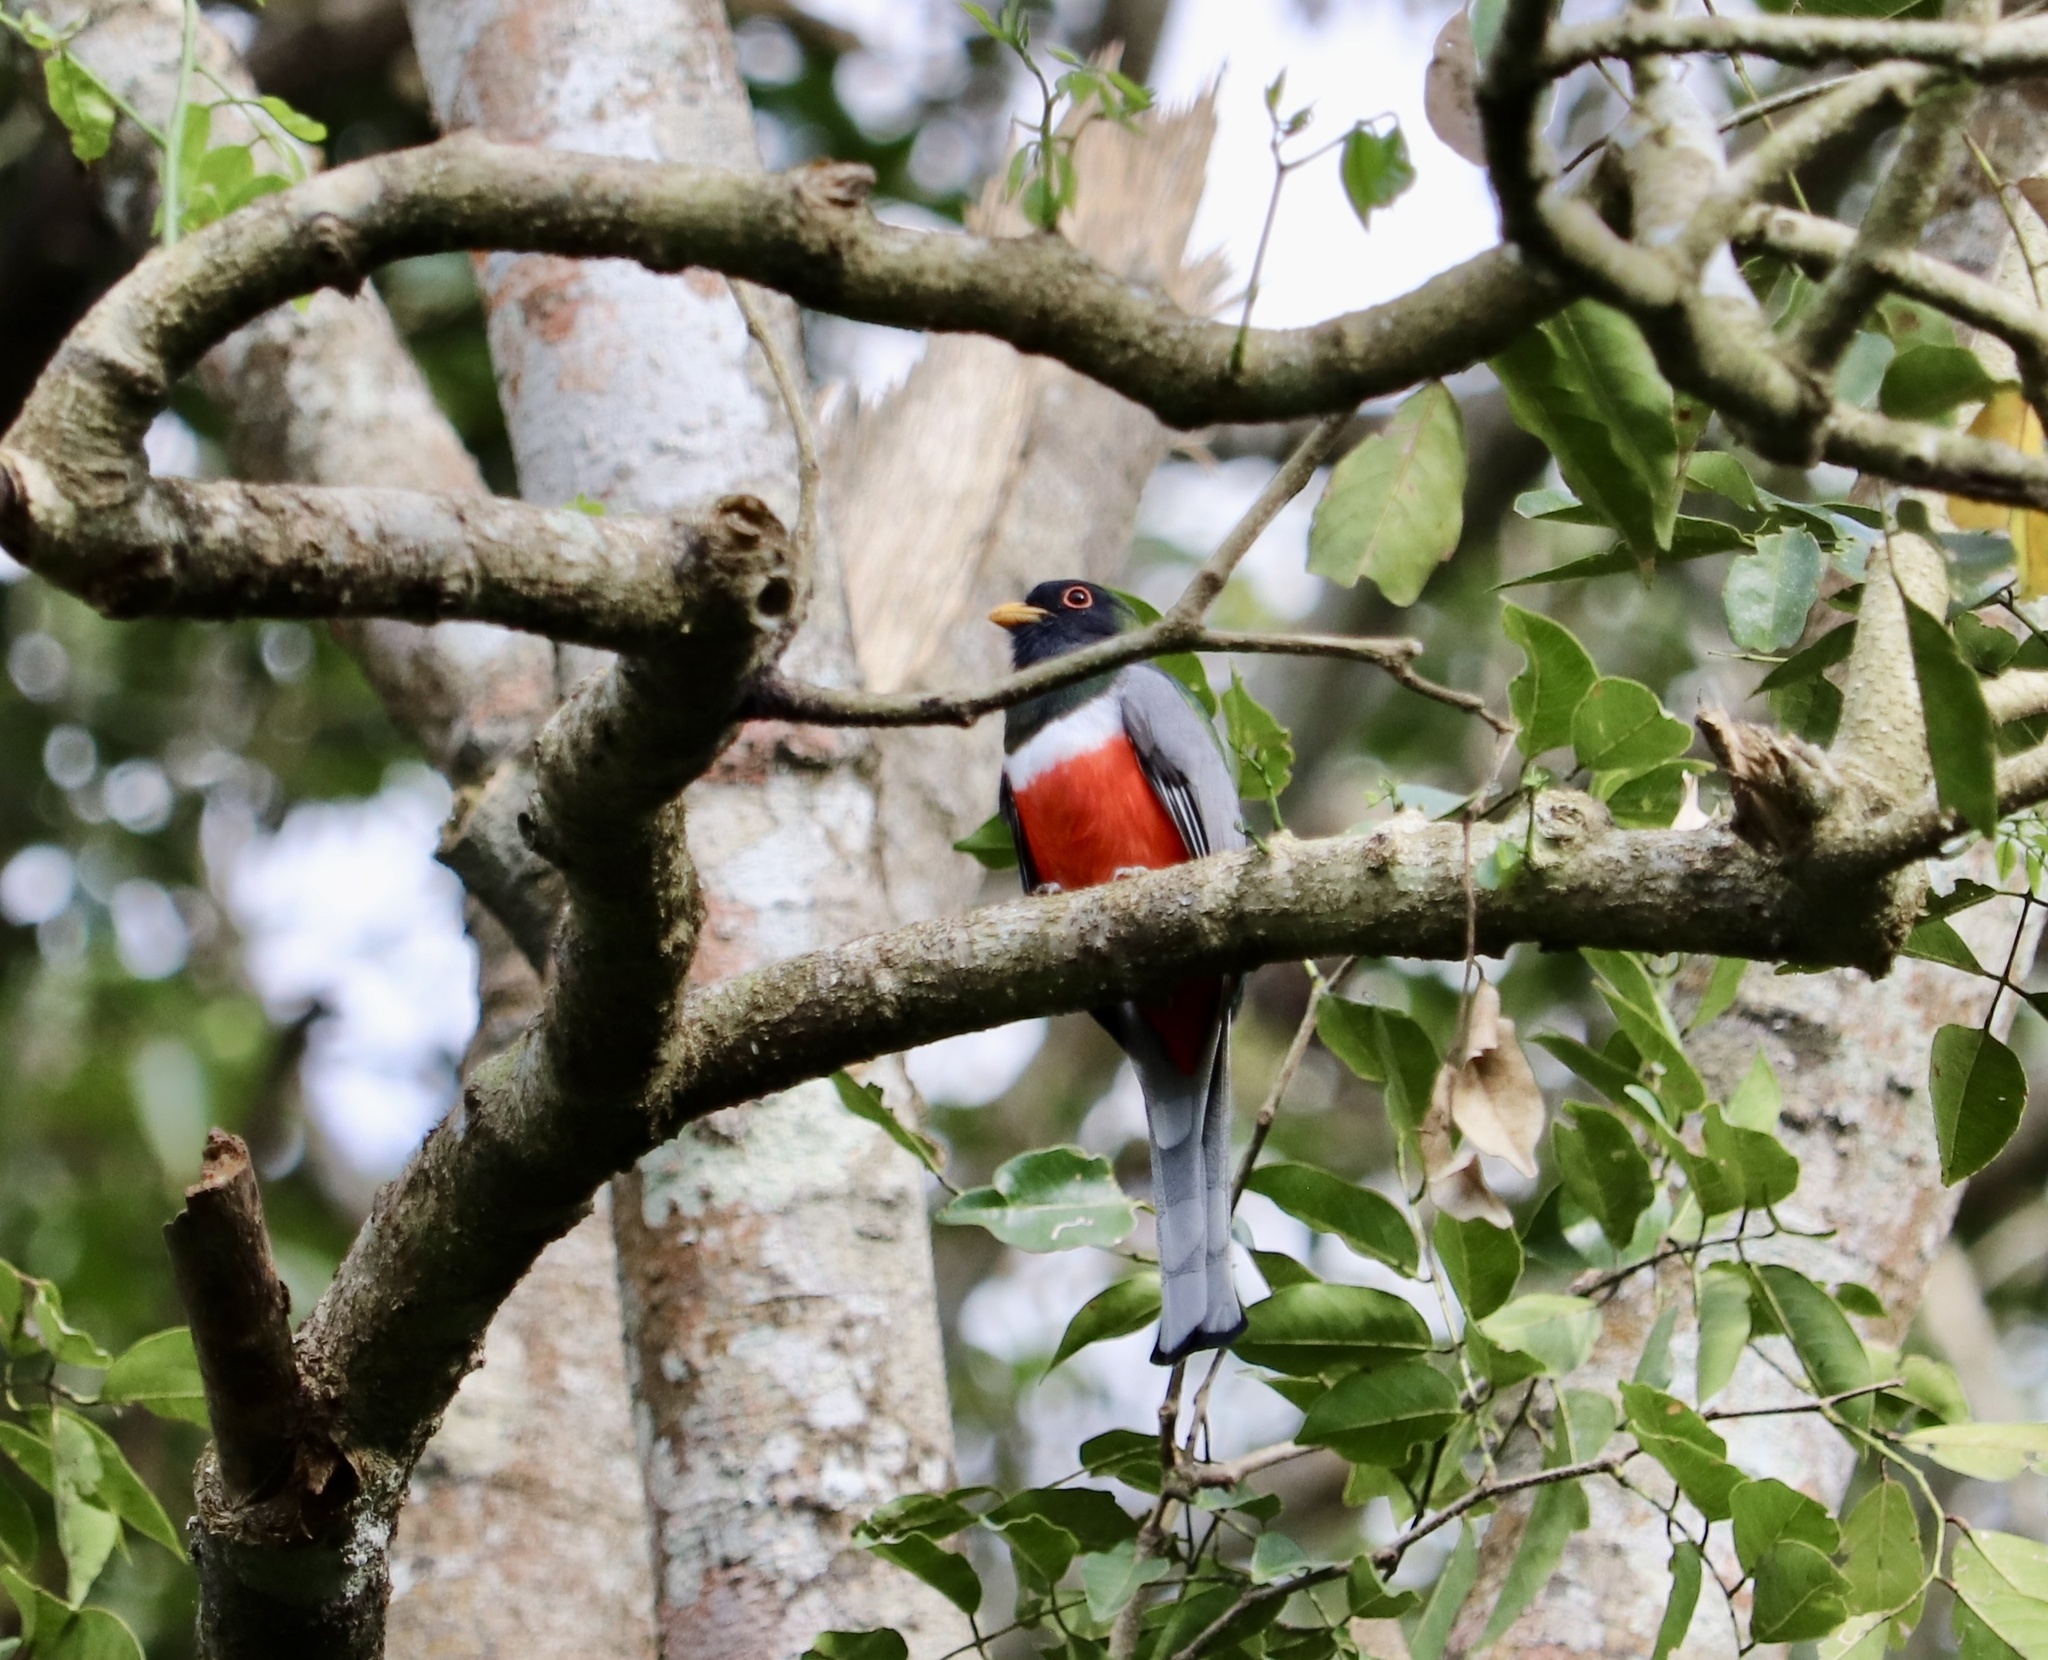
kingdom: Animalia
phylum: Chordata
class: Aves
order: Trogoniformes
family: Trogonidae
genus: Trogon
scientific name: Trogon elegans
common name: Elegant trogon
